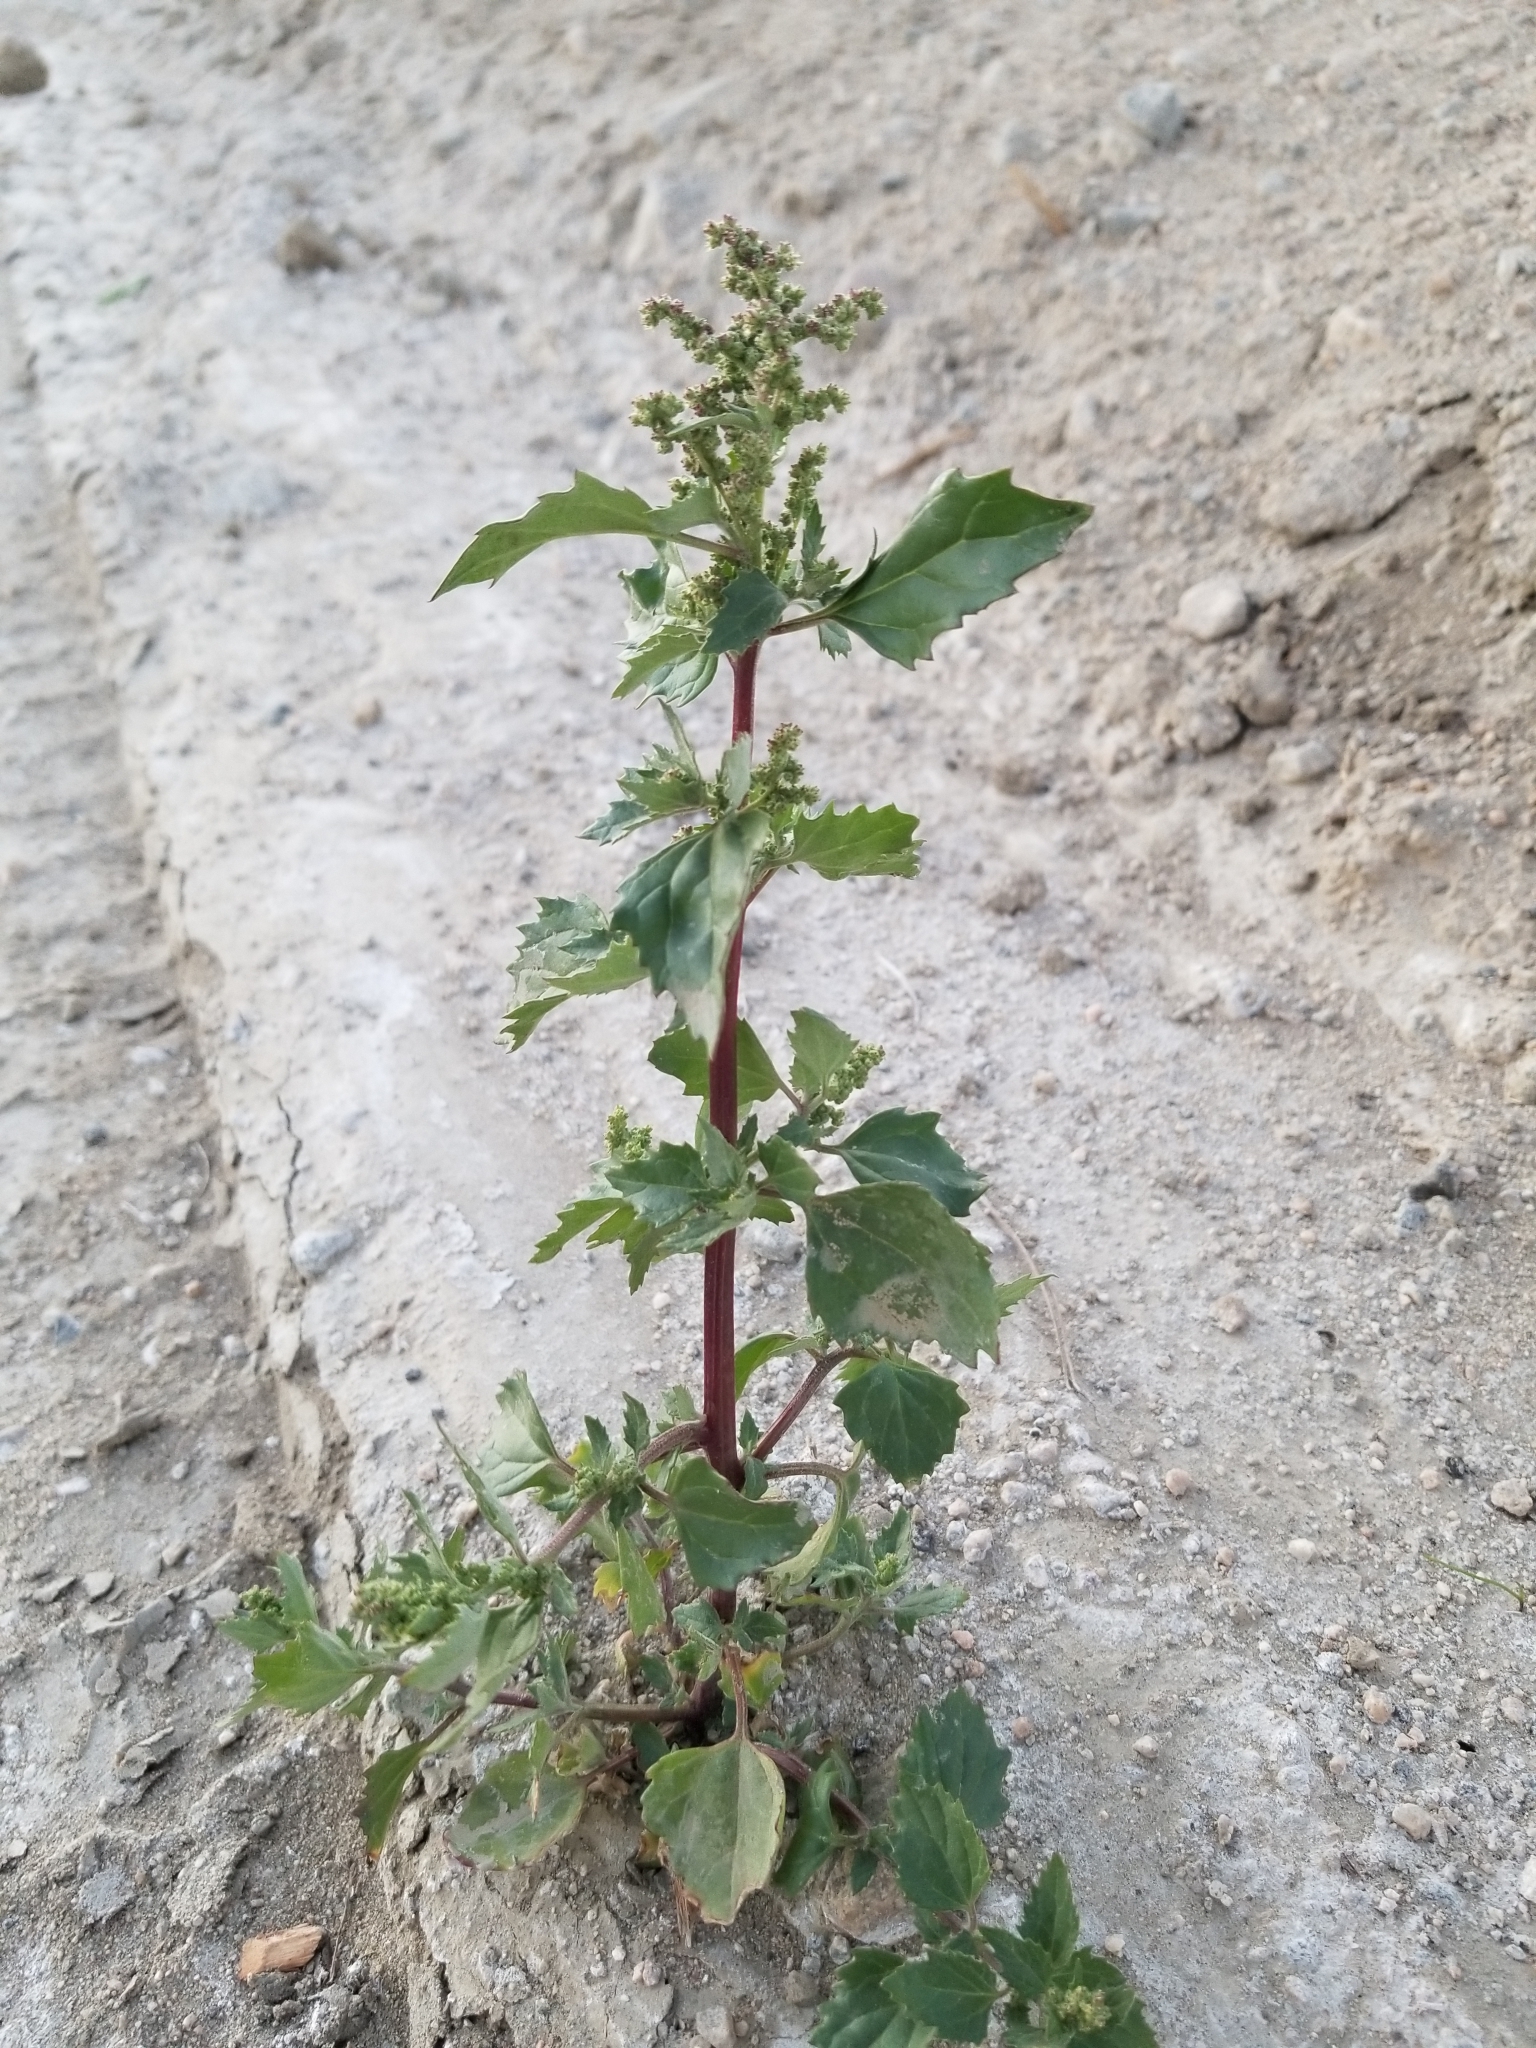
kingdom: Plantae
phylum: Tracheophyta
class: Magnoliopsida
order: Caryophyllales
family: Amaranthaceae
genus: Chenopodiastrum
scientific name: Chenopodiastrum murale
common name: Sowbane
